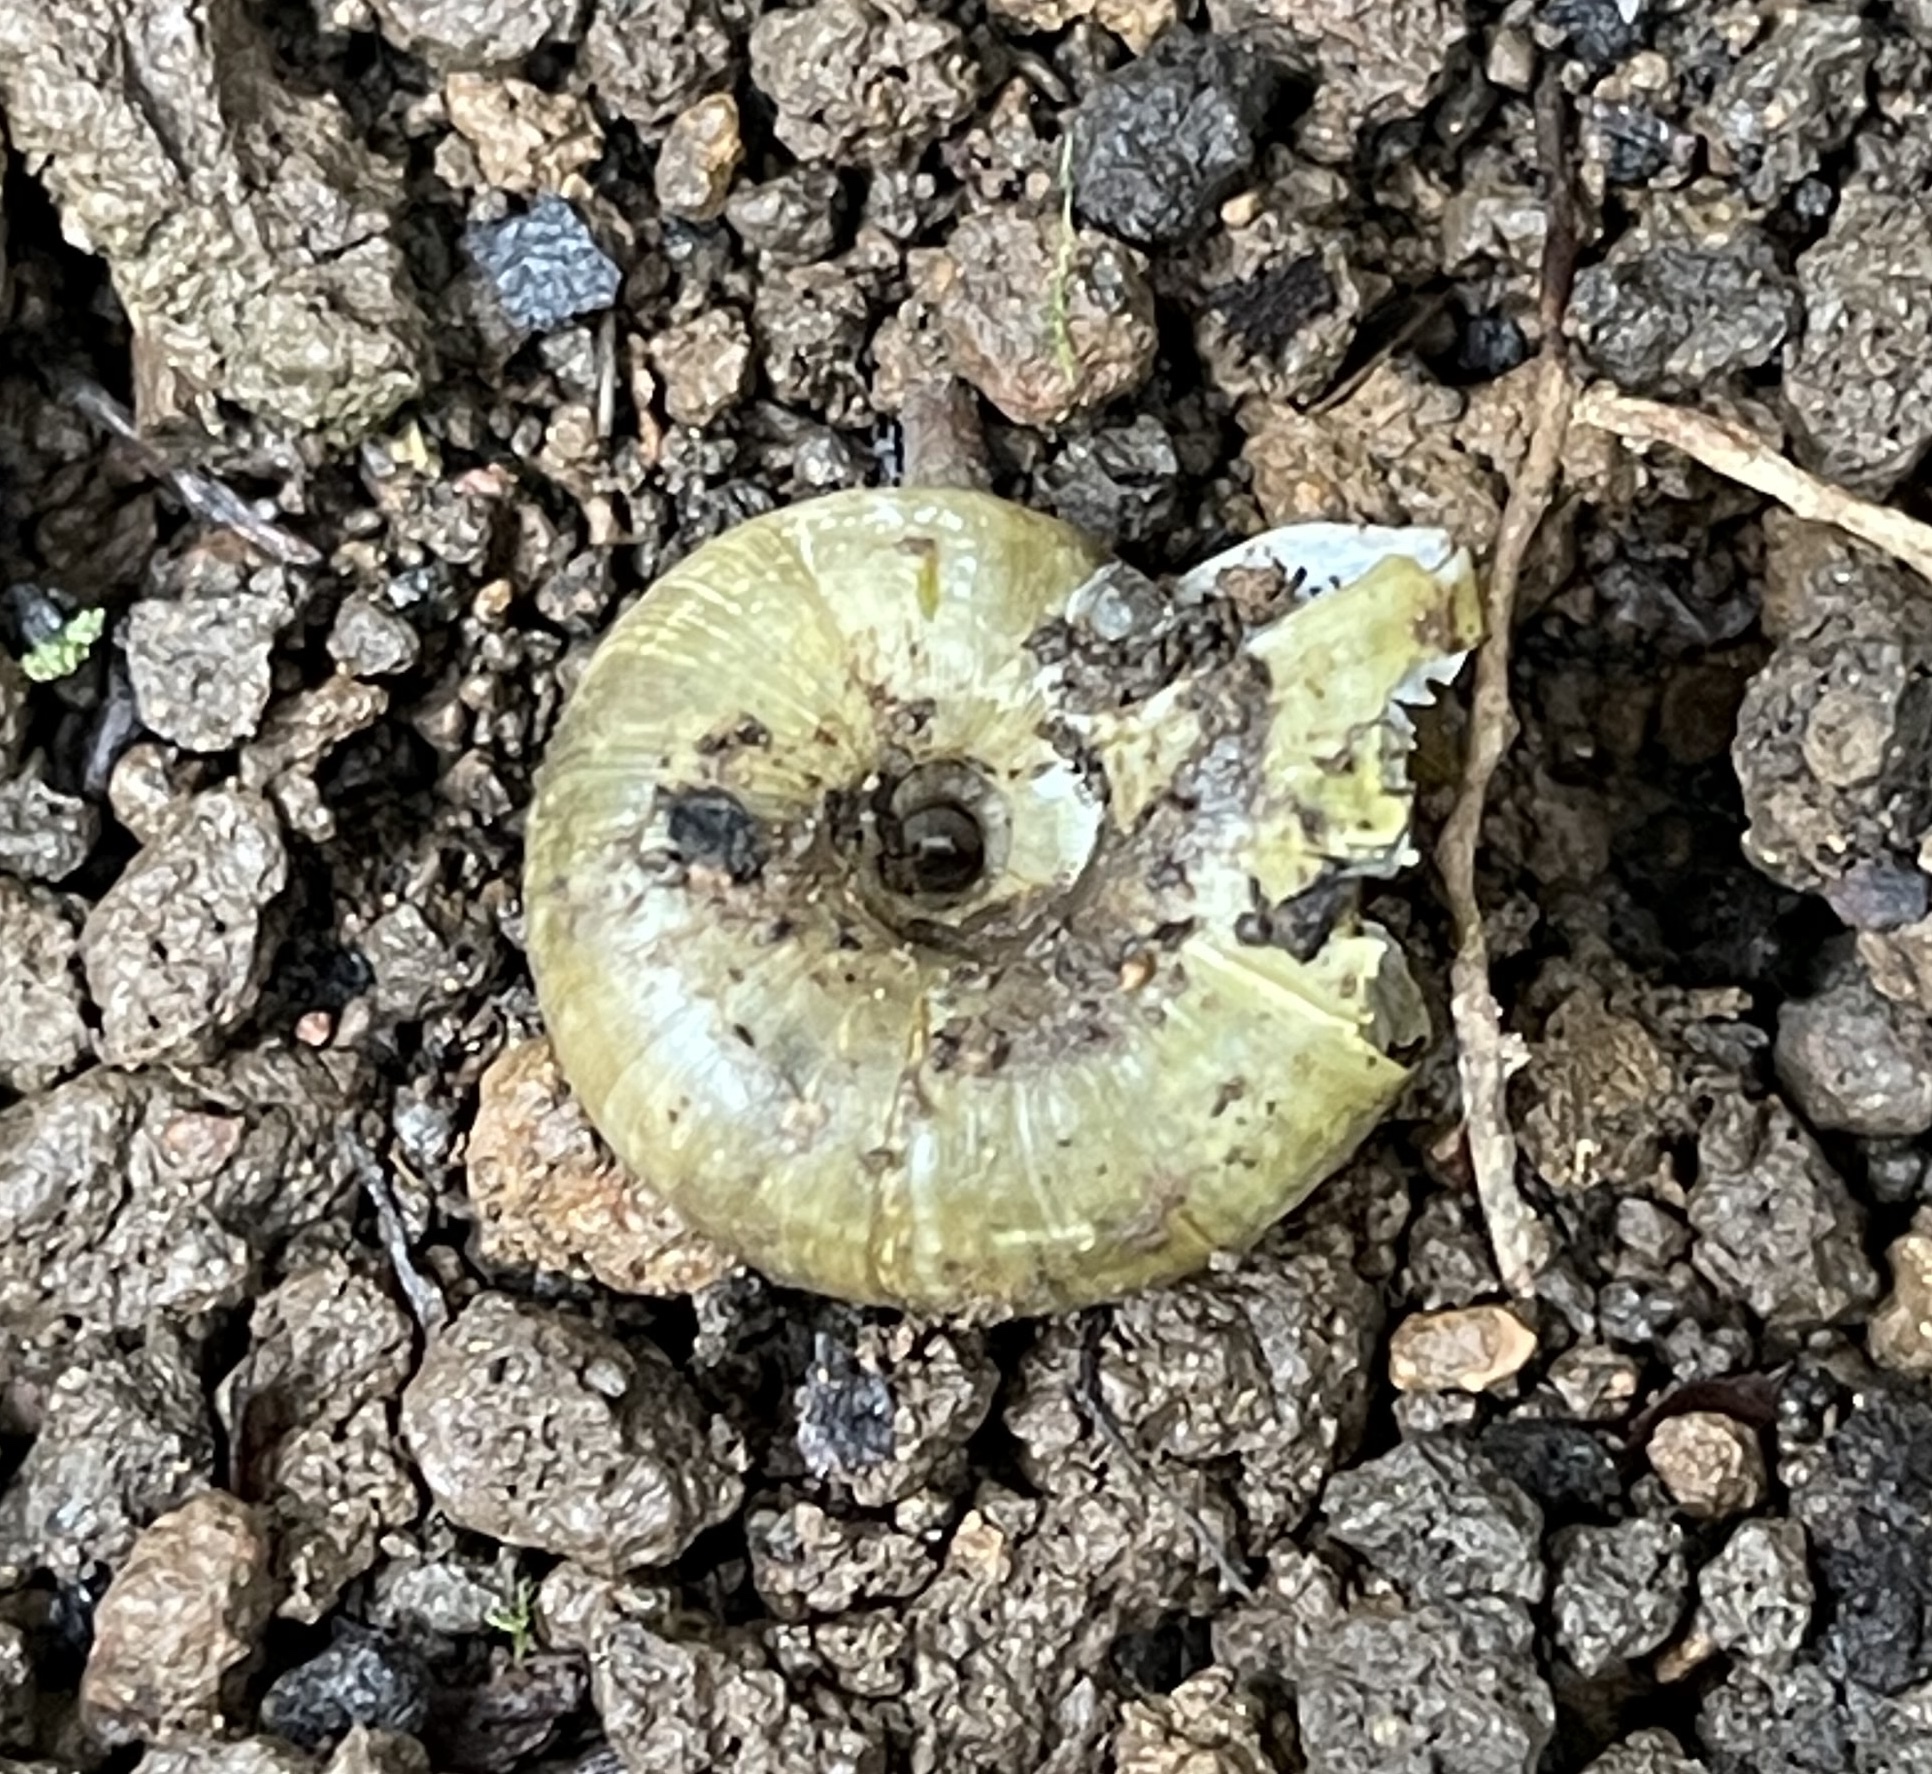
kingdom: Animalia
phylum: Mollusca
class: Gastropoda
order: Stylommatophora
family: Haplotrematidae
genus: Haplotrema
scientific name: Haplotrema minimum
